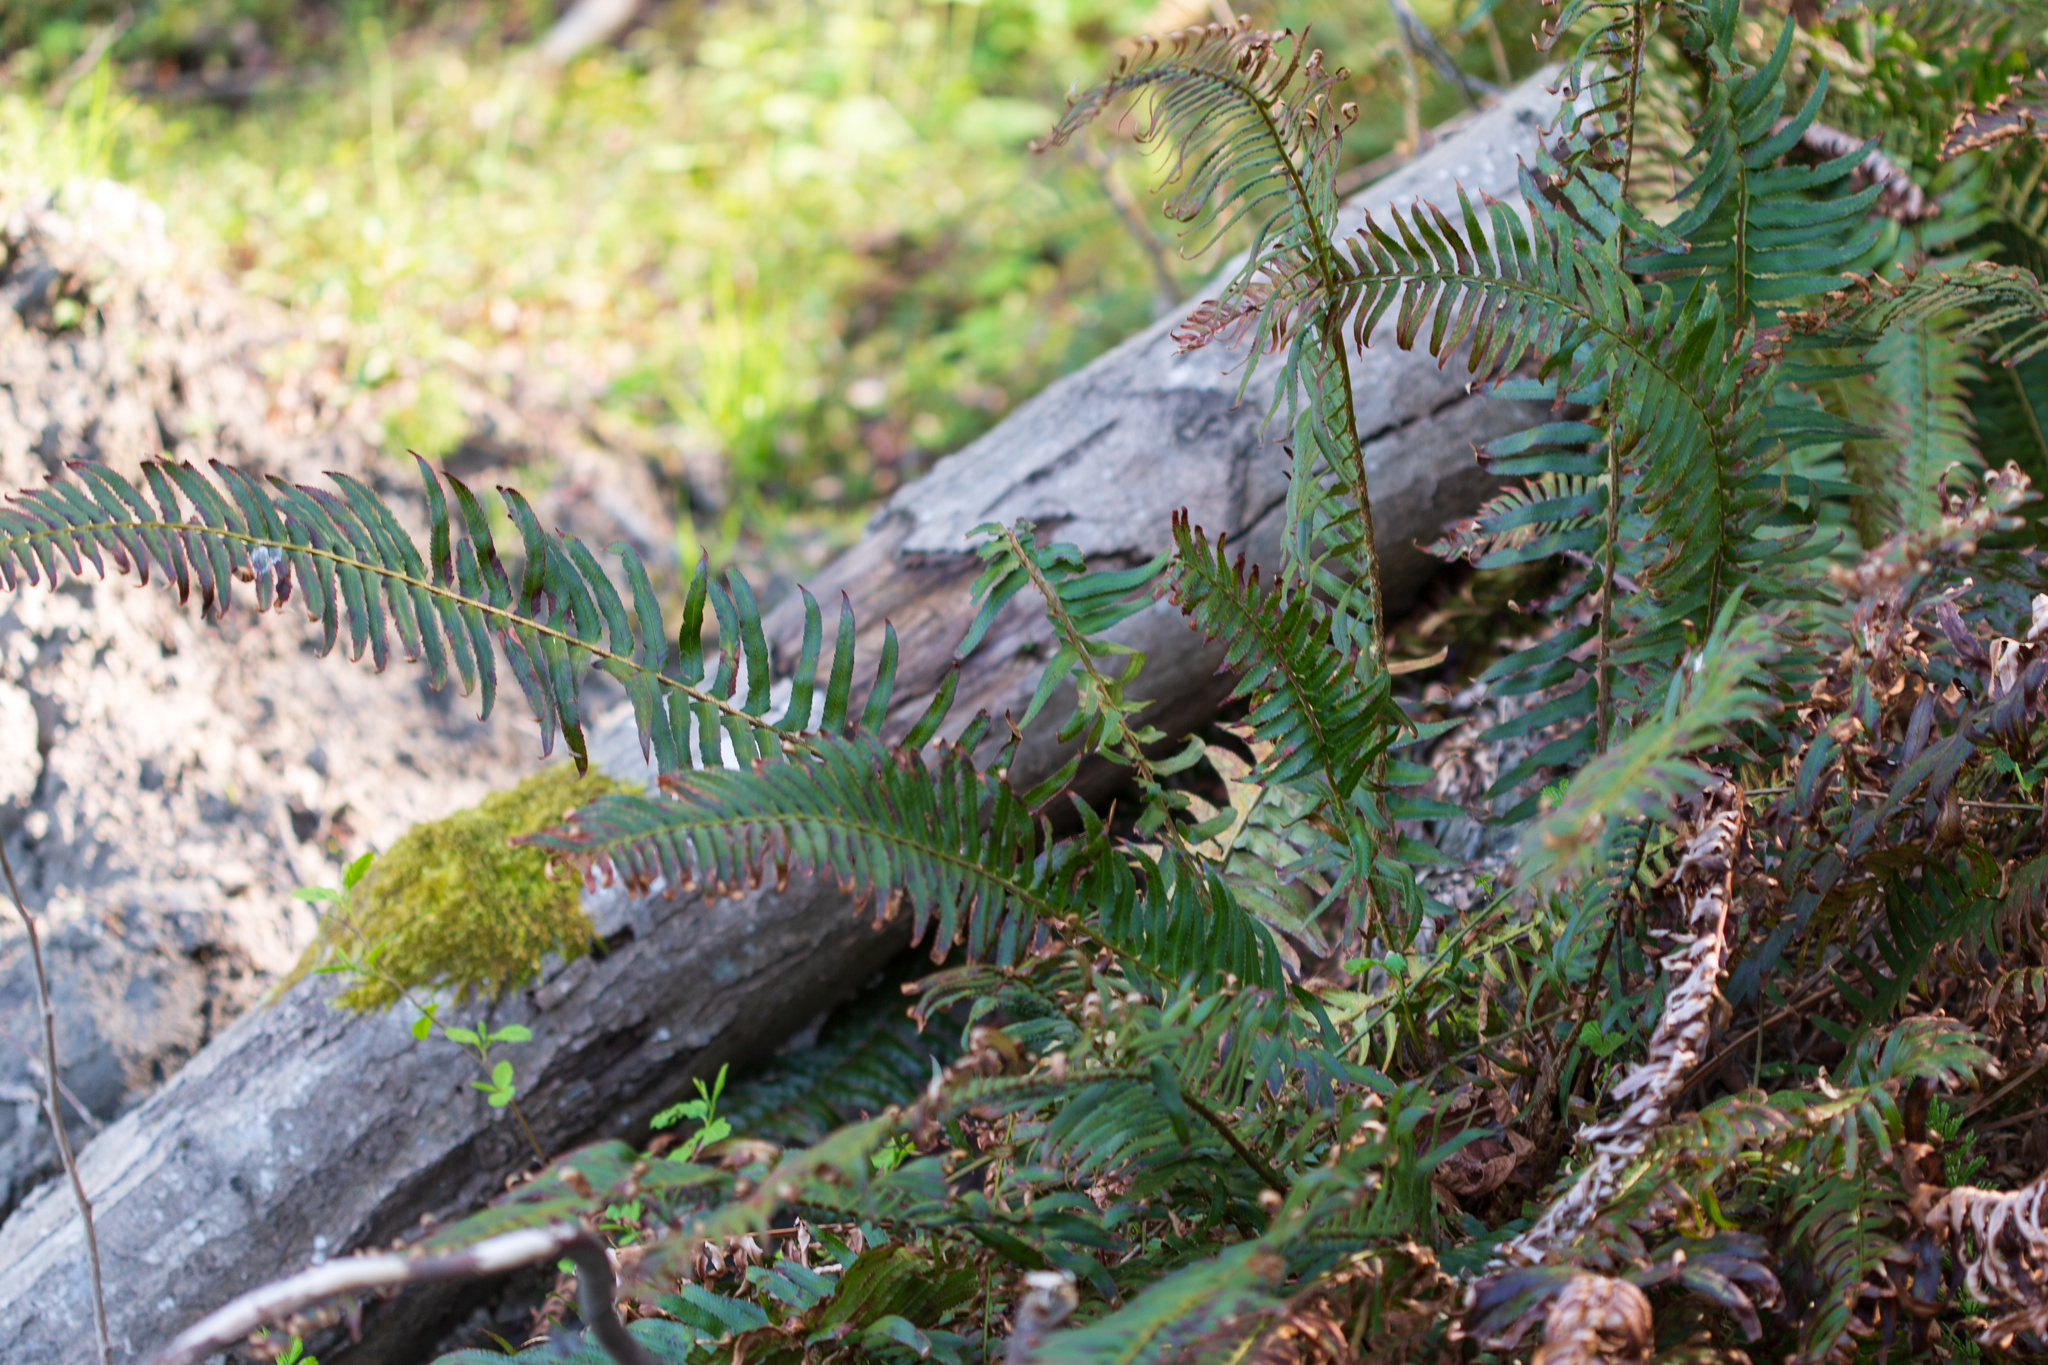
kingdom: Plantae
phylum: Tracheophyta
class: Polypodiopsida
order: Polypodiales
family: Dryopteridaceae
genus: Polystichum
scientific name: Polystichum munitum
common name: Western sword-fern
